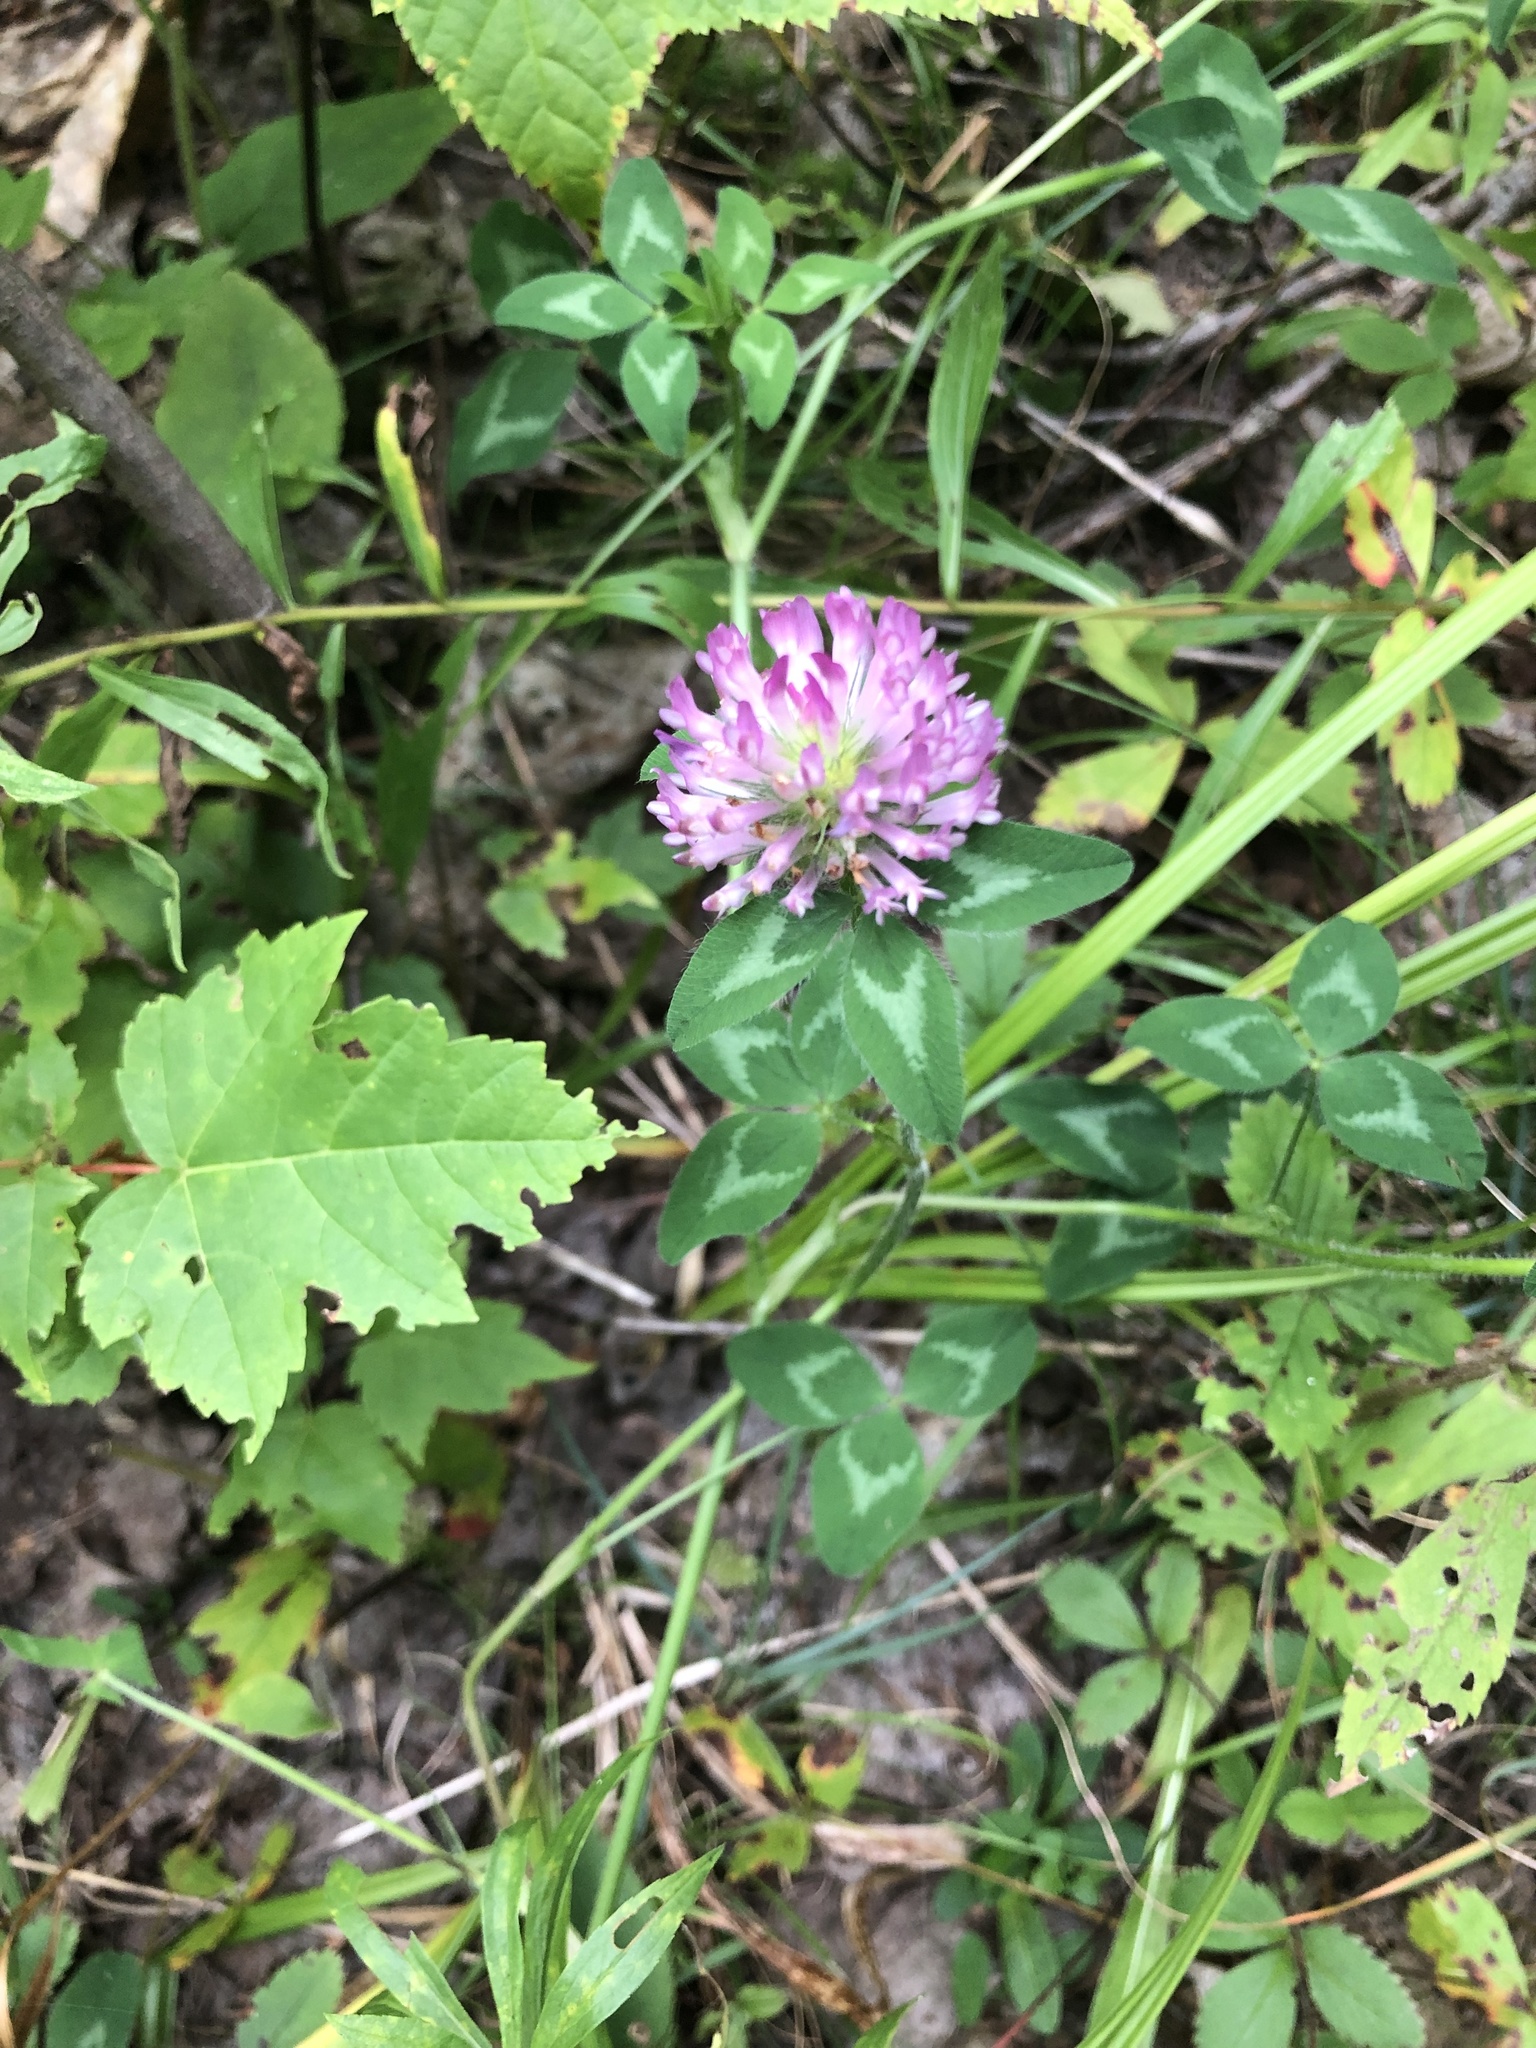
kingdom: Plantae
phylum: Tracheophyta
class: Magnoliopsida
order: Fabales
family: Fabaceae
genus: Trifolium
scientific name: Trifolium pratense
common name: Red clover
